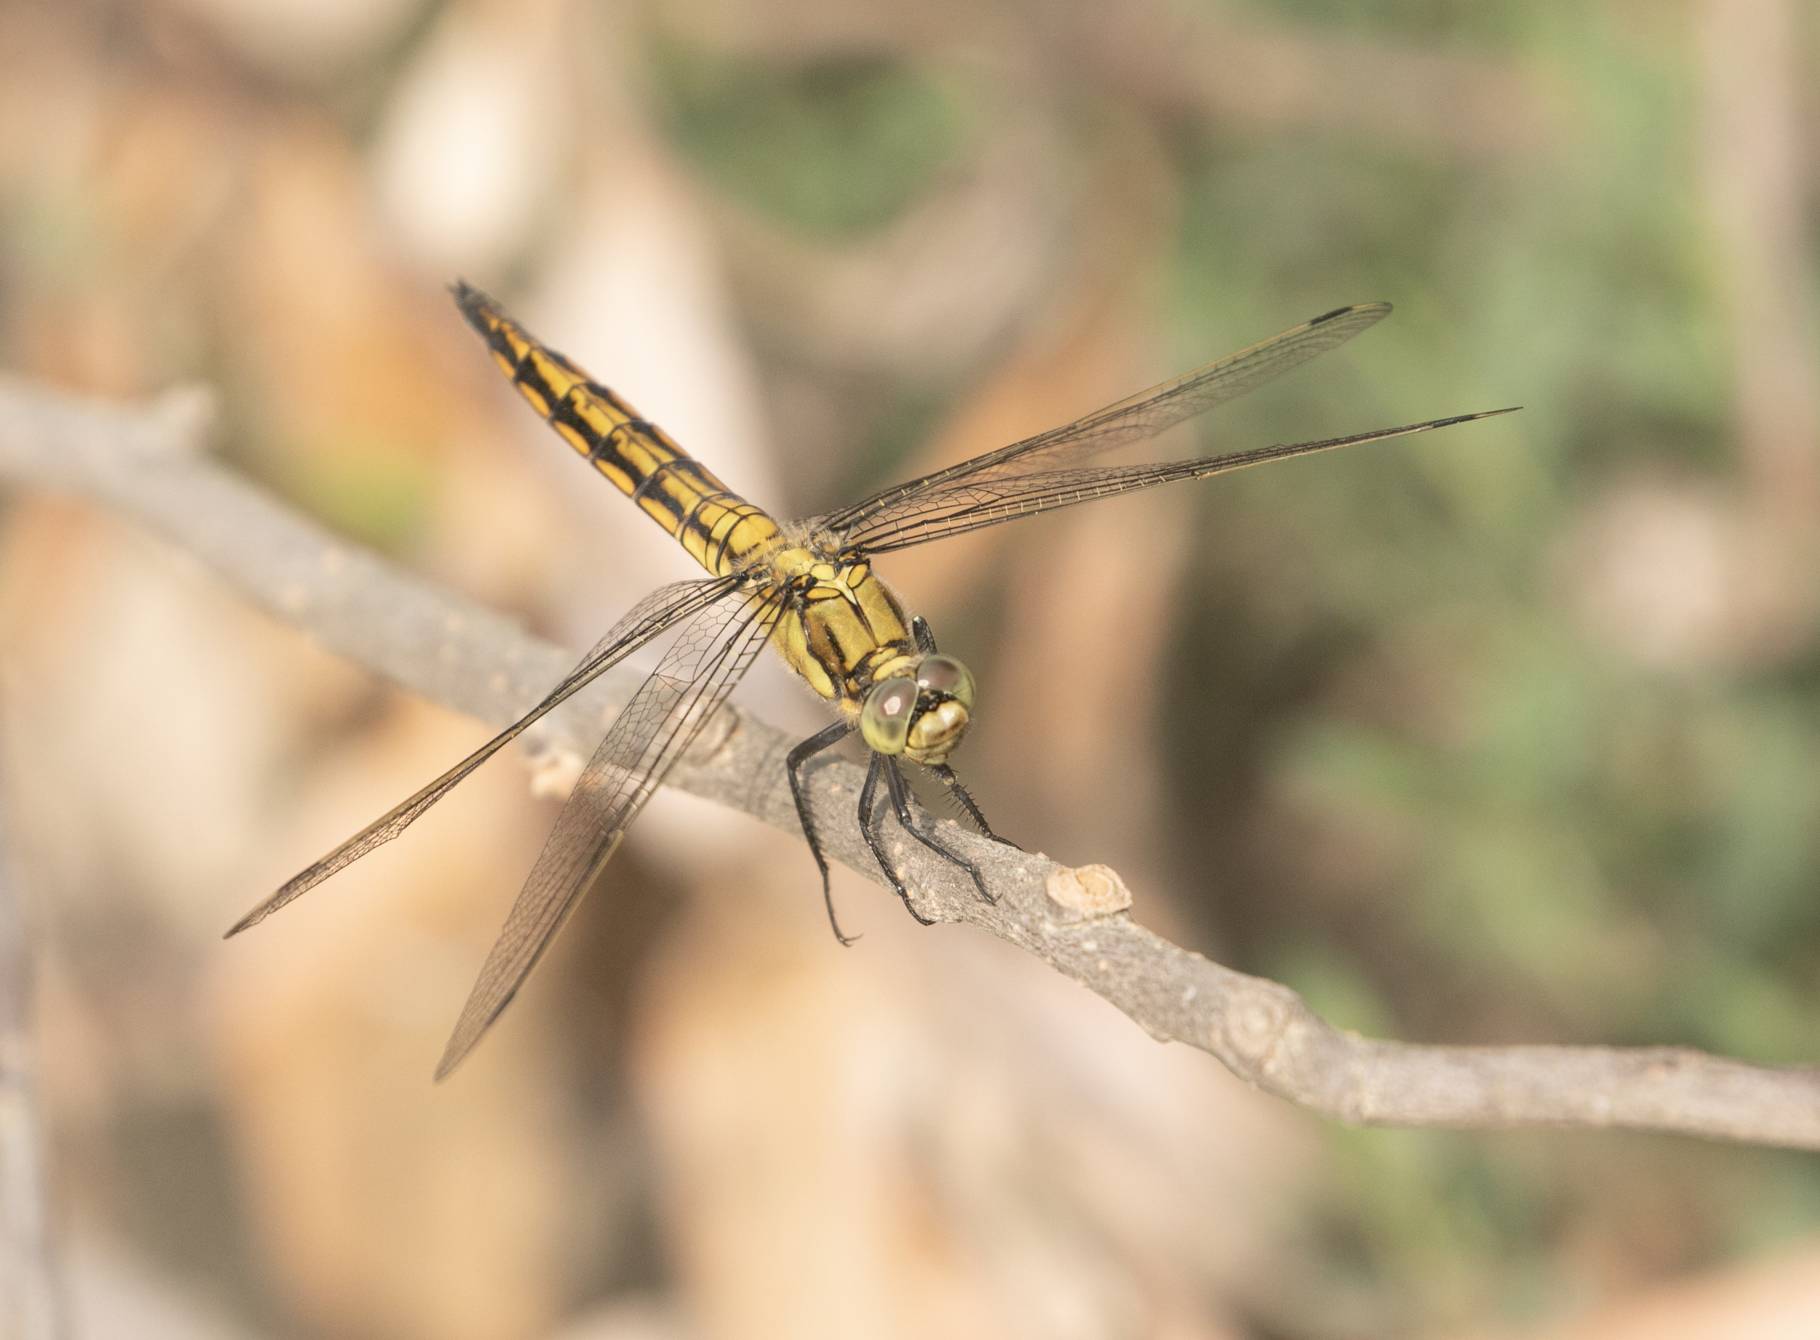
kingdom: Animalia
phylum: Arthropoda
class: Insecta
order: Odonata
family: Libellulidae
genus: Orthetrum
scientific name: Orthetrum cancellatum
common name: Black-tailed skimmer
